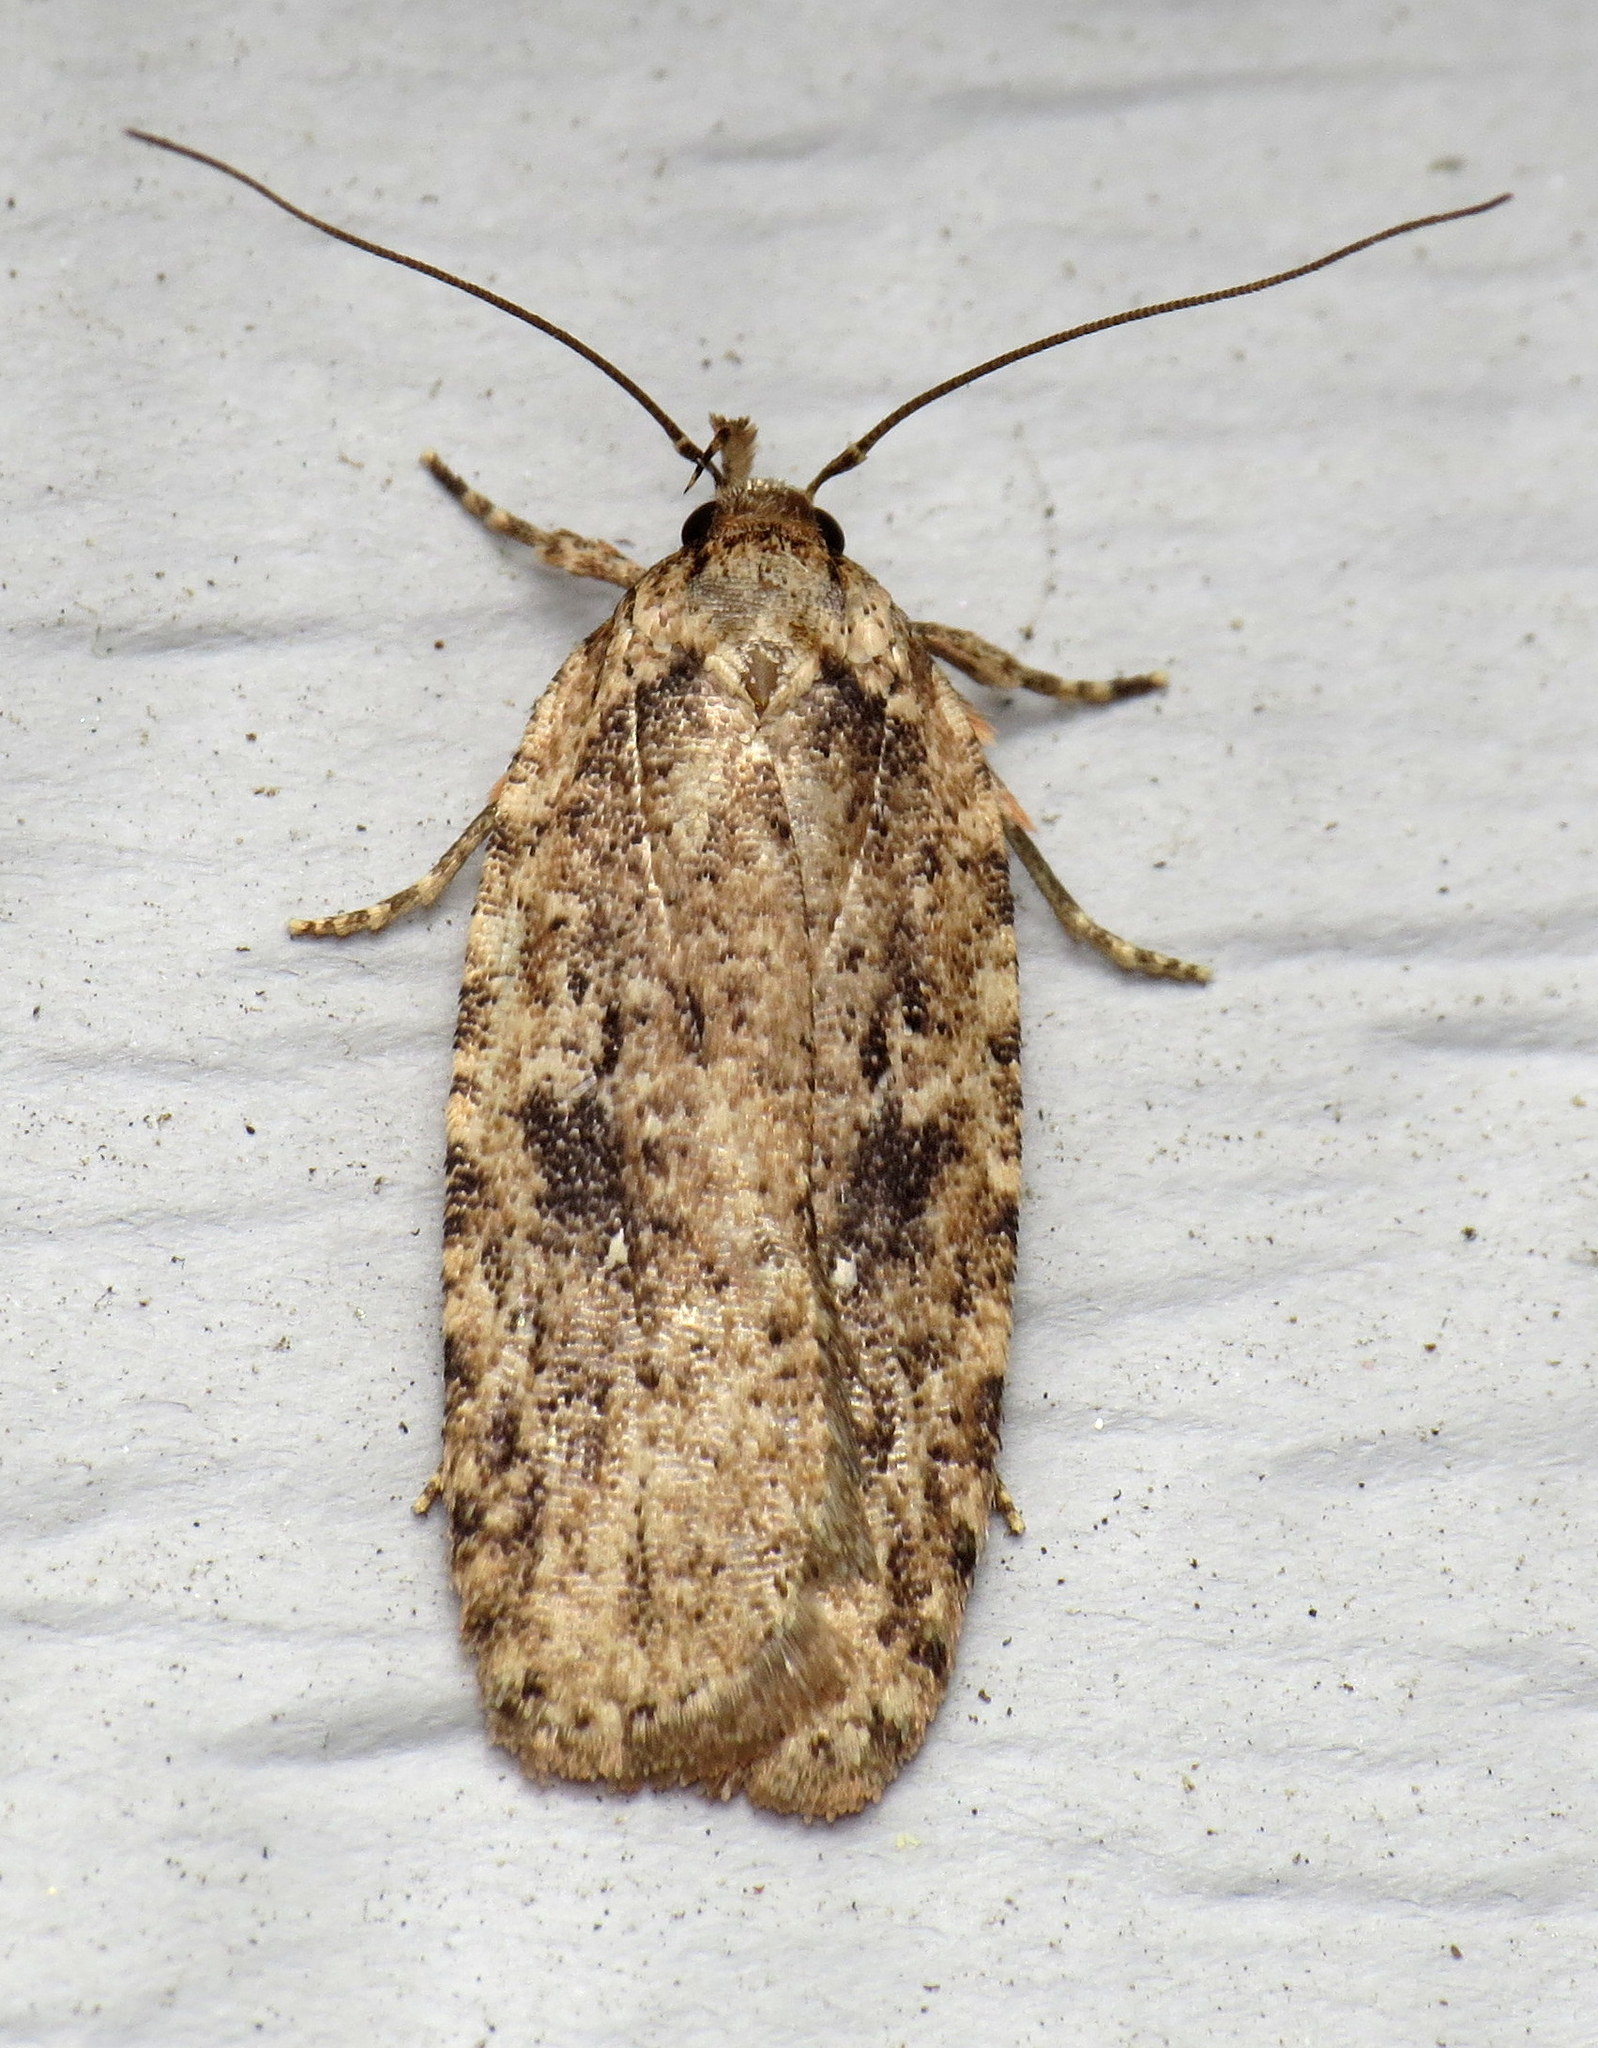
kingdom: Animalia
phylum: Arthropoda
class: Insecta
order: Lepidoptera
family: Depressariidae
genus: Agonopterix
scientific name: Agonopterix pulvipennella
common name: Goldenrod leafffolder
